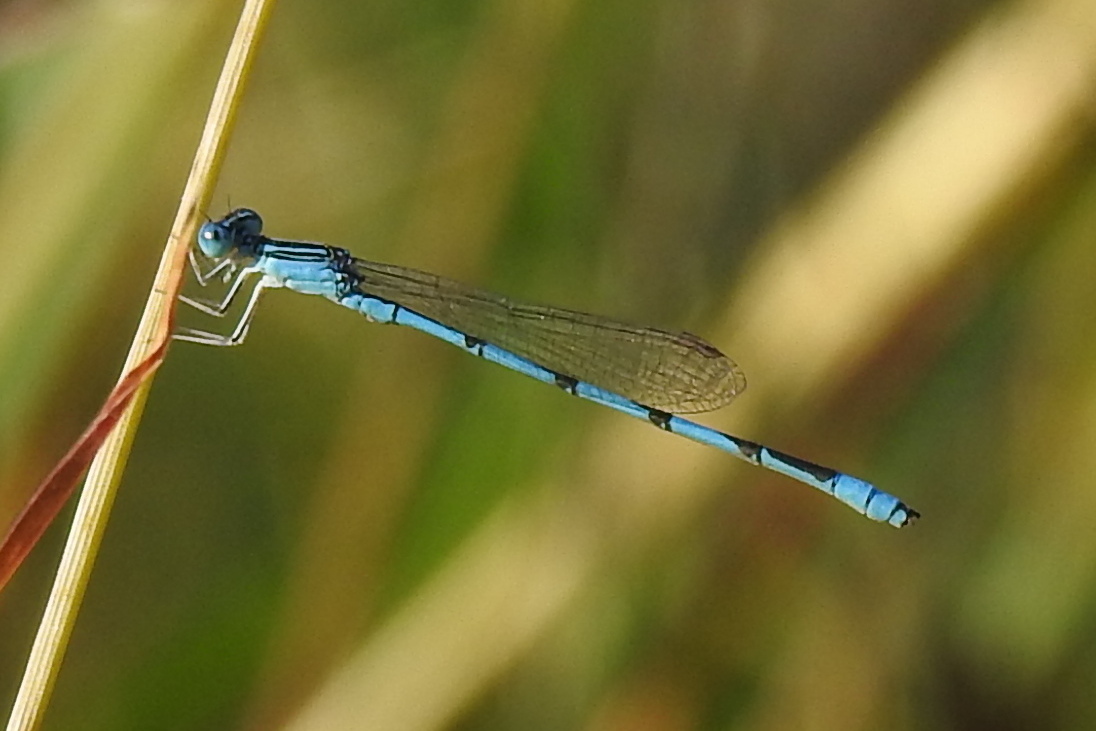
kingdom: Animalia
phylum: Arthropoda
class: Insecta
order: Odonata
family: Coenagrionidae
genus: Enallagma
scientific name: Enallagma basidens
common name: Double-striped bluet
